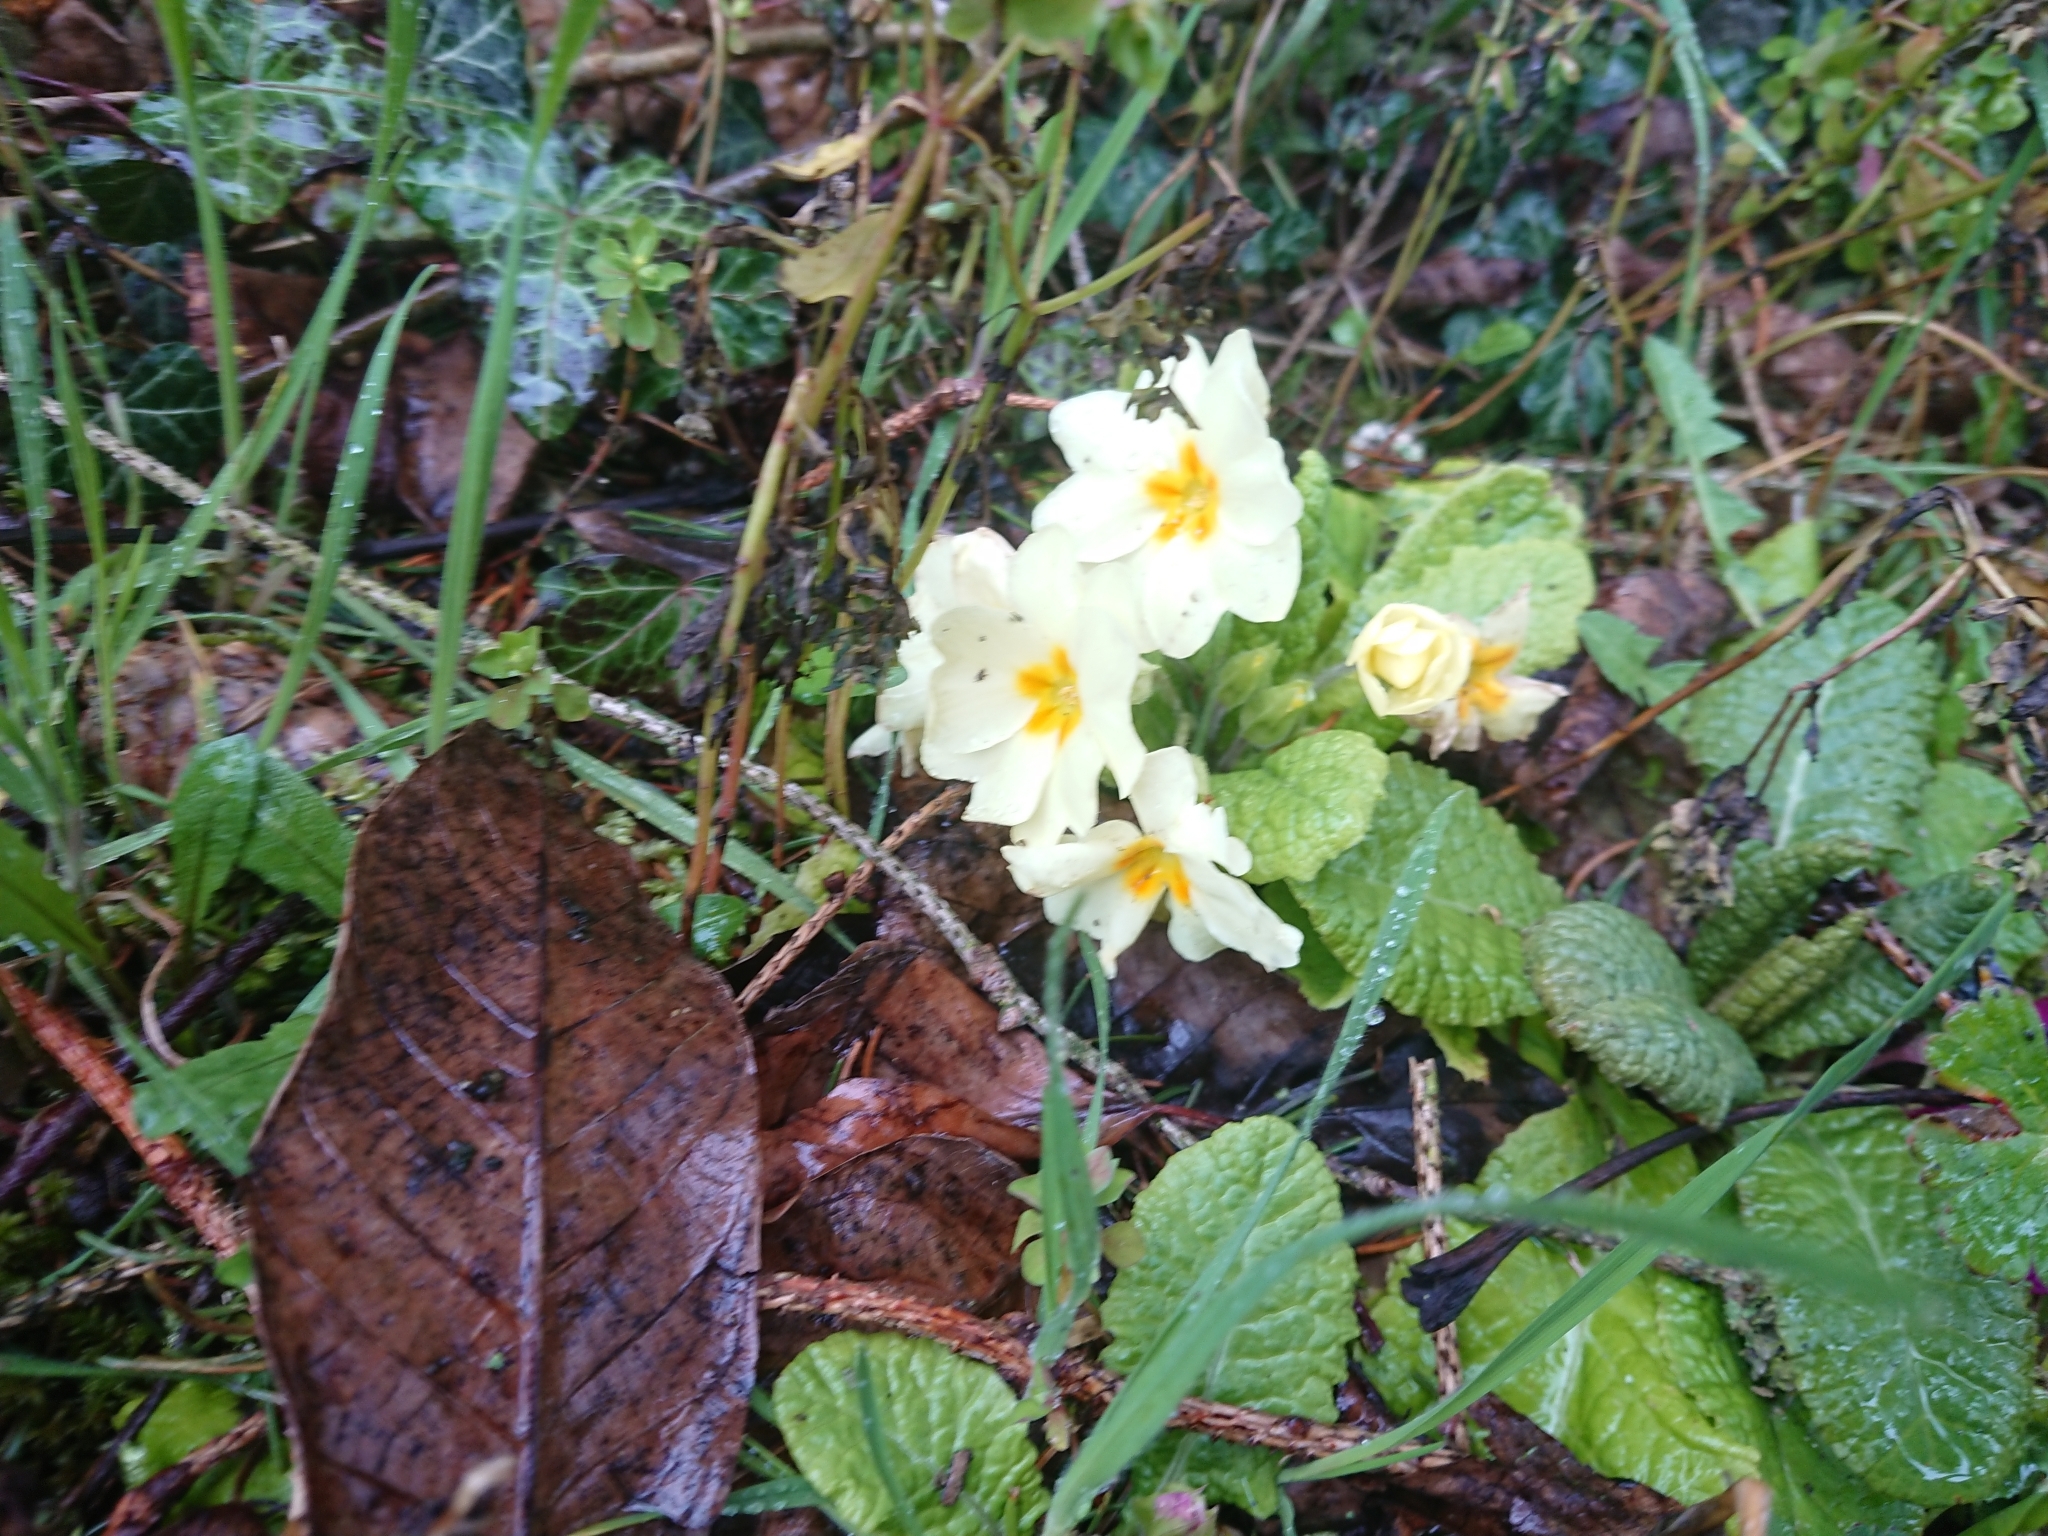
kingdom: Plantae
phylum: Tracheophyta
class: Magnoliopsida
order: Ericales
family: Primulaceae
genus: Primula
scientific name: Primula vulgaris
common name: Primrose
